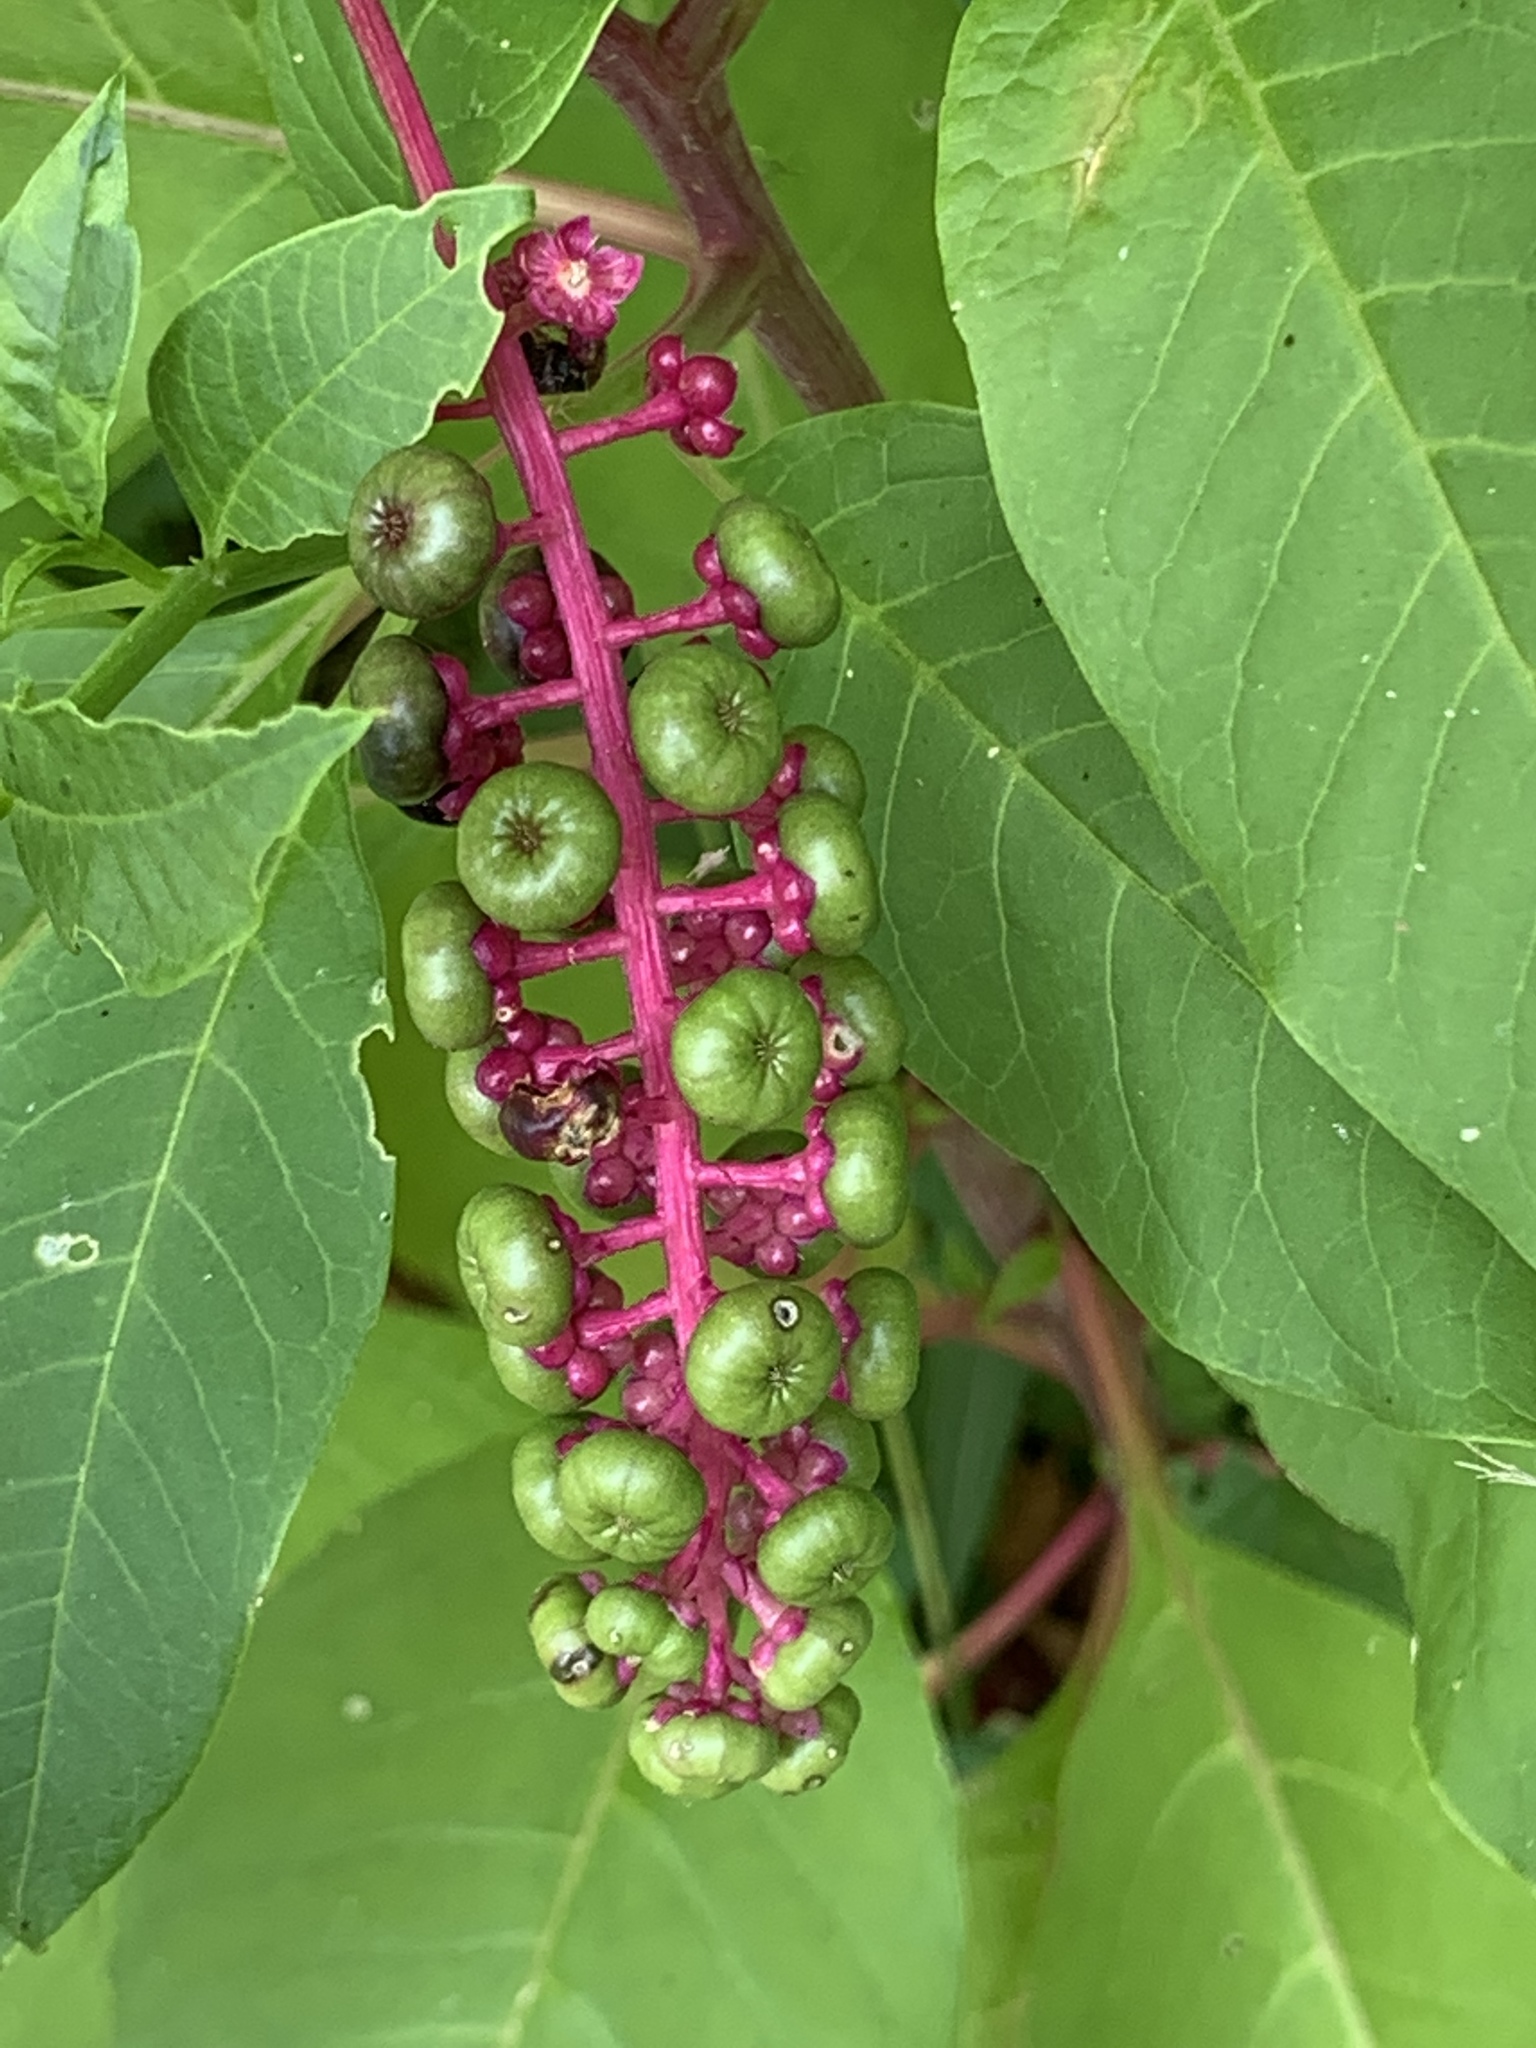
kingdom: Plantae
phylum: Tracheophyta
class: Magnoliopsida
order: Caryophyllales
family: Phytolaccaceae
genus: Phytolacca
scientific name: Phytolacca americana
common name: American pokeweed
